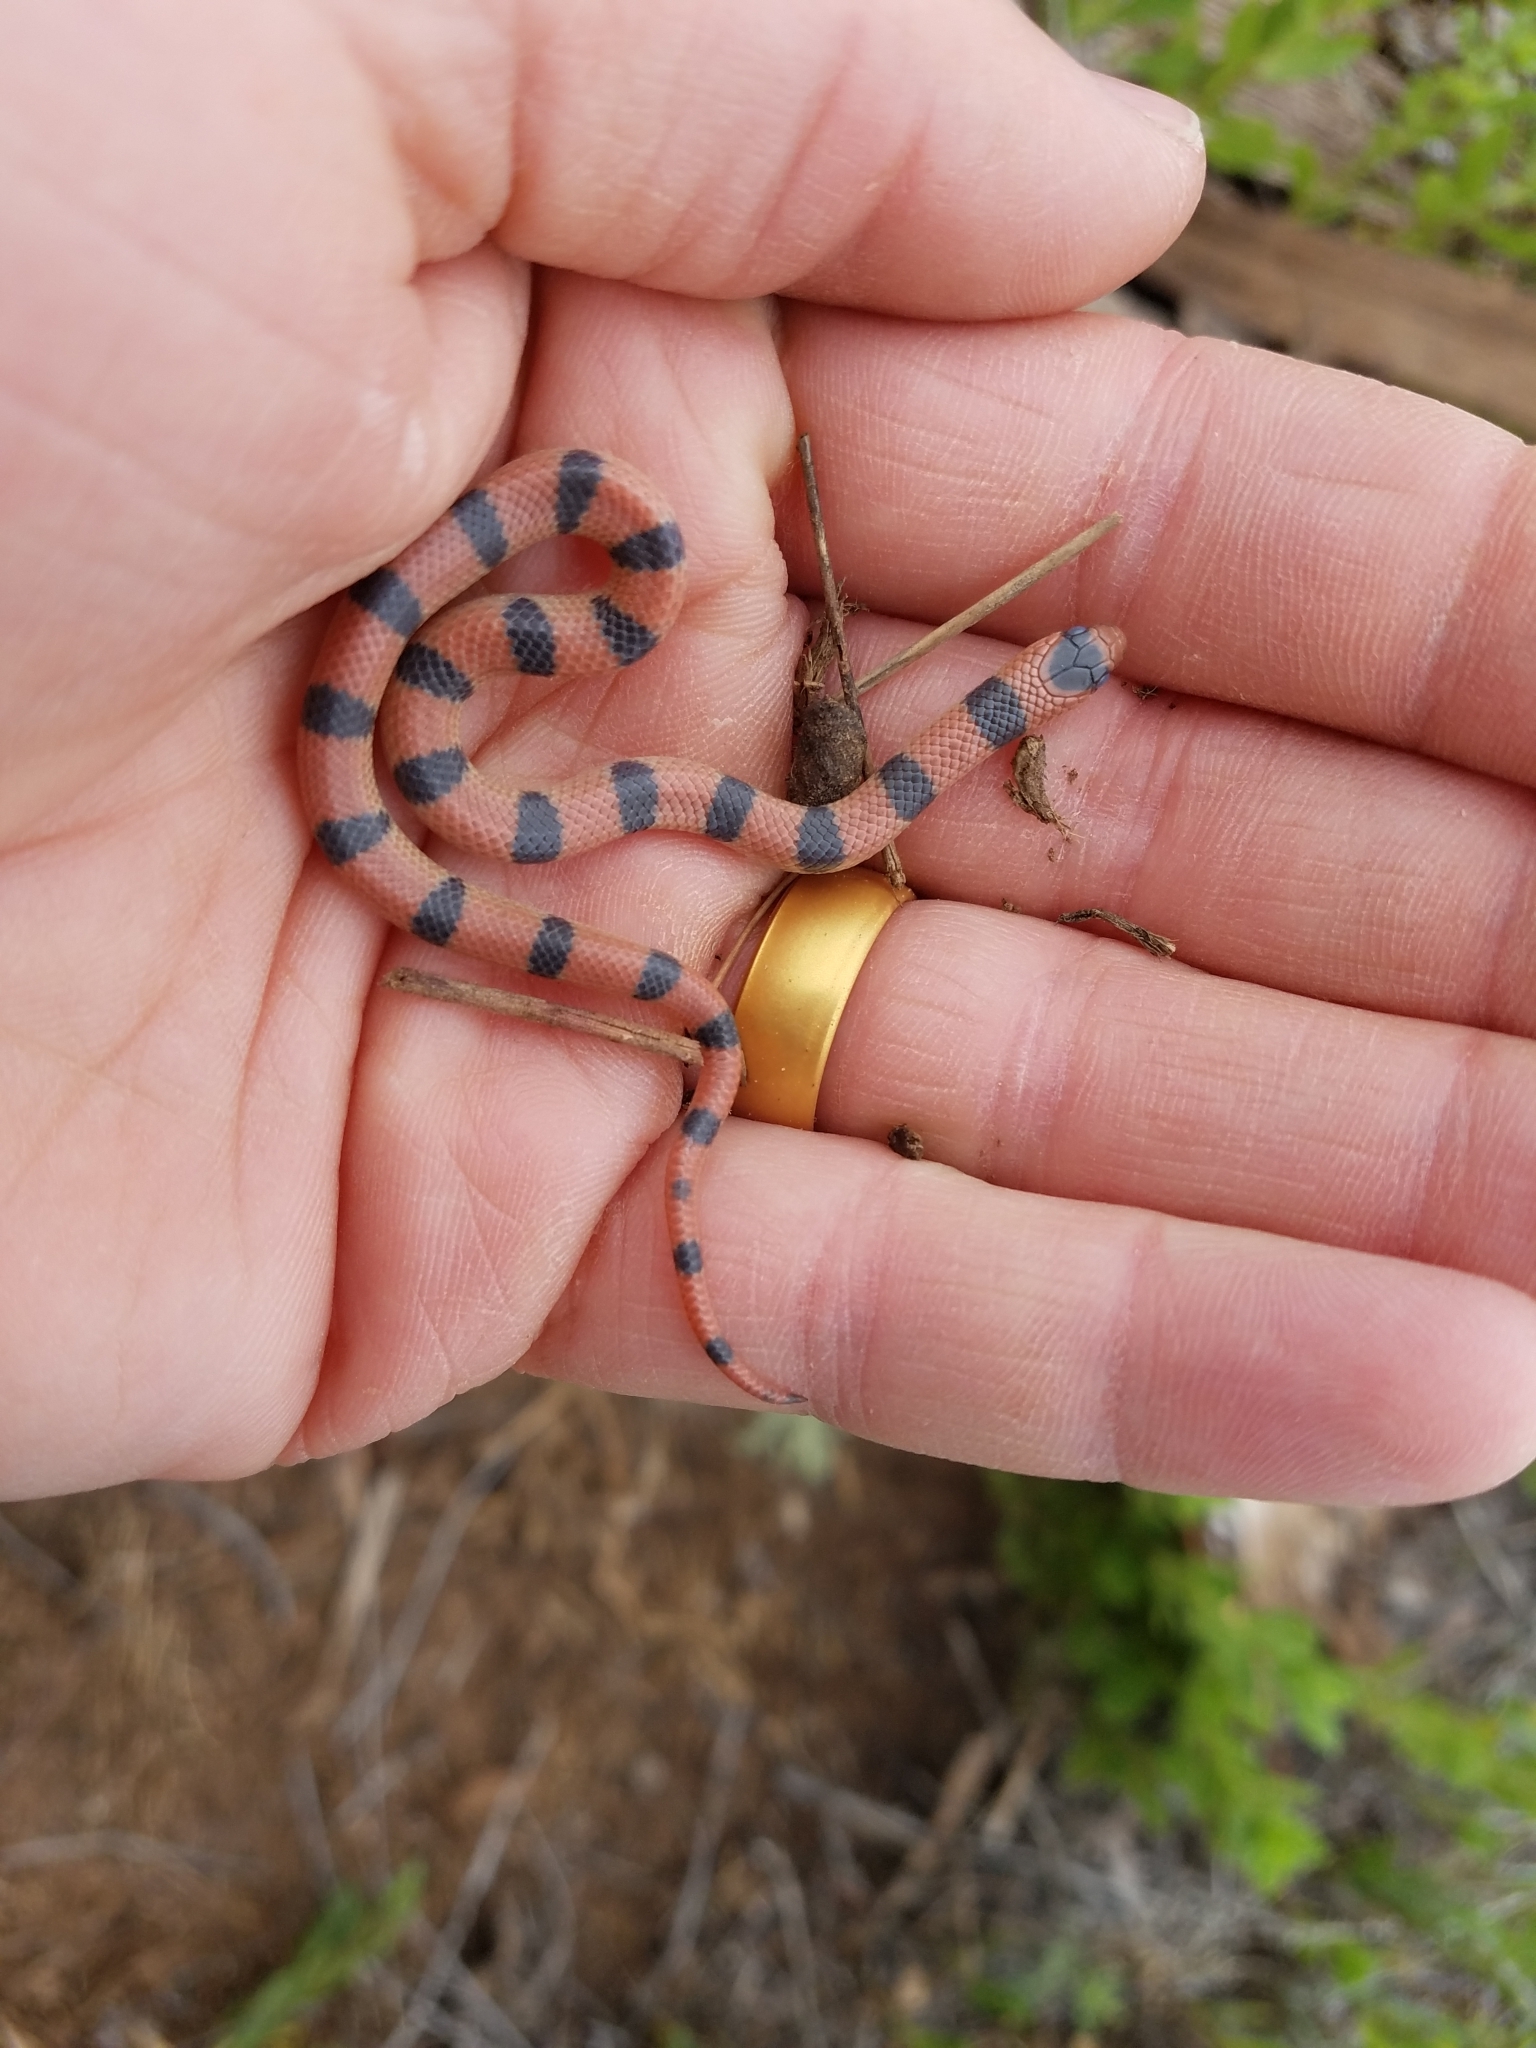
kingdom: Animalia
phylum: Chordata
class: Squamata
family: Colubridae
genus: Sonora
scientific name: Sonora episcopa
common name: Ground snake
